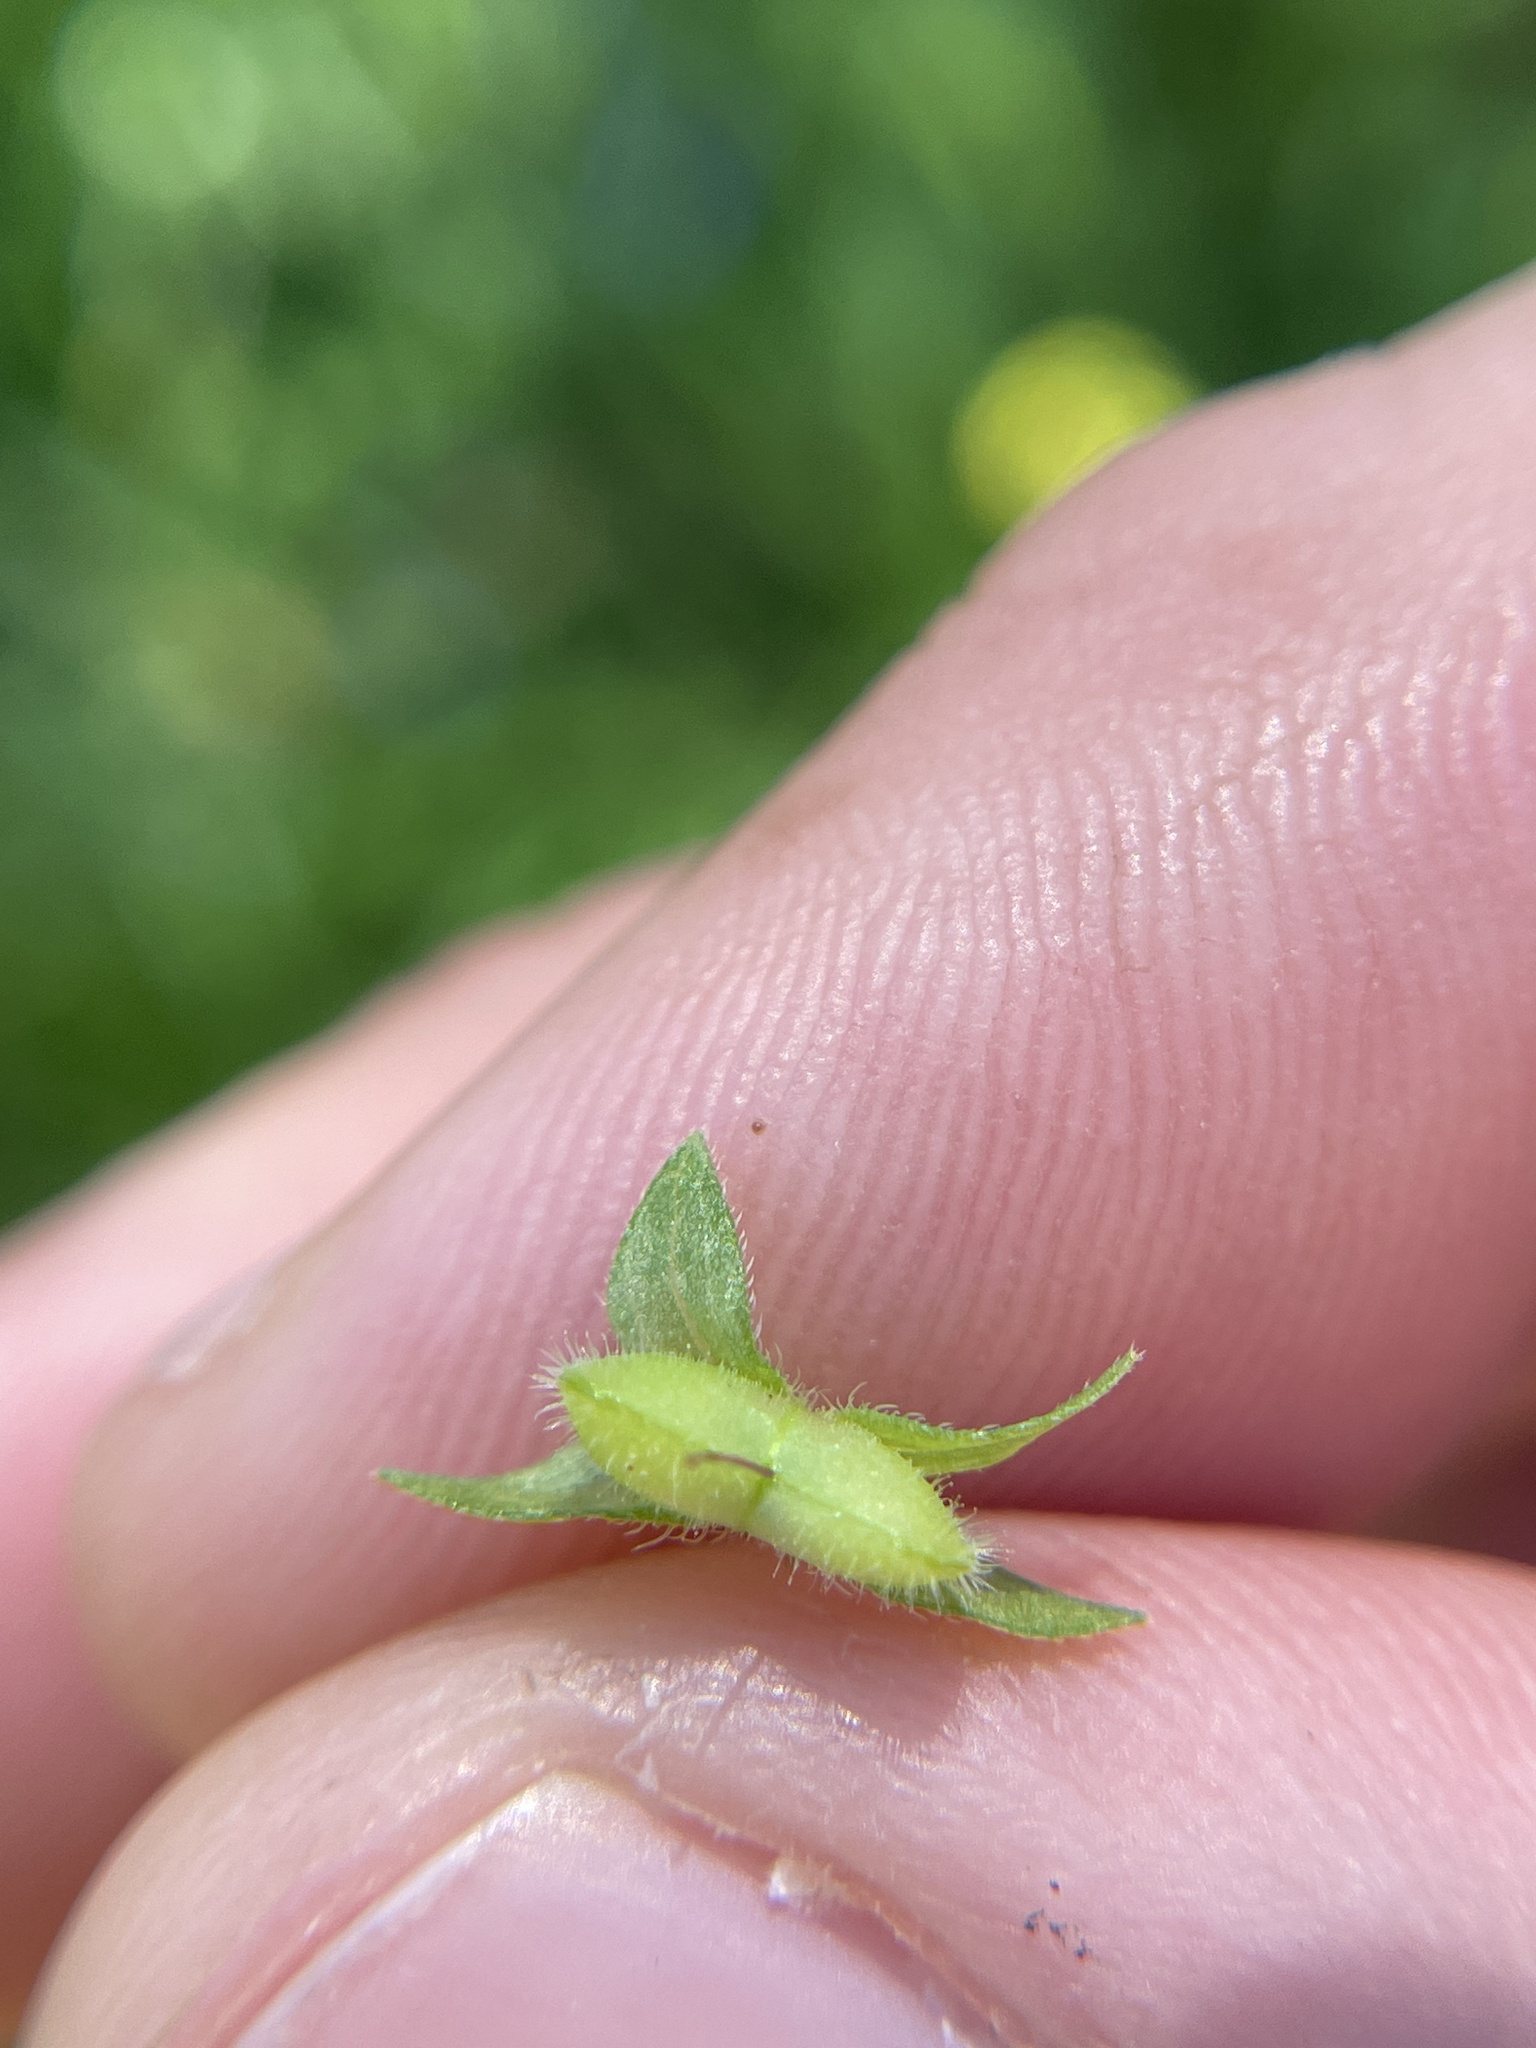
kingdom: Plantae
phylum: Tracheophyta
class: Magnoliopsida
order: Lamiales
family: Plantaginaceae
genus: Veronica
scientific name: Veronica persica
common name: Common field-speedwell
